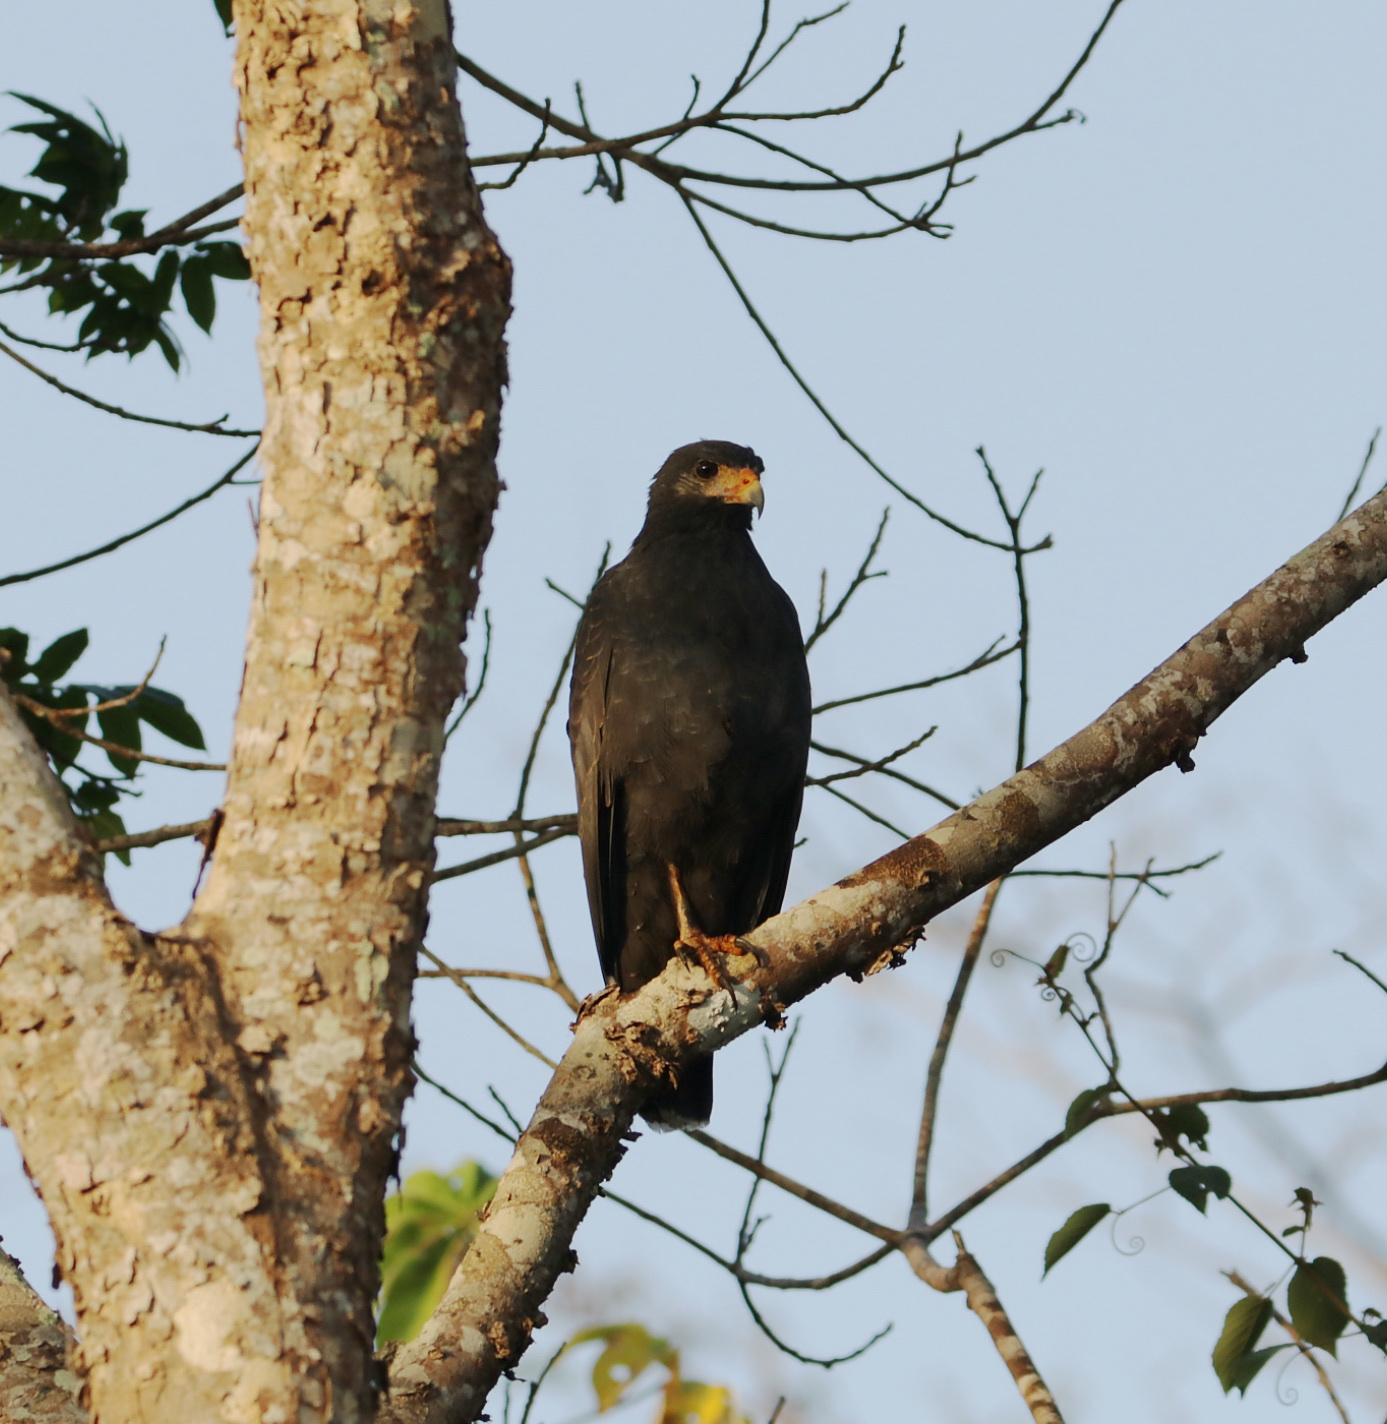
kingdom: Animalia
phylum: Chordata
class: Aves
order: Accipitriformes
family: Accipitridae
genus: Buteogallus
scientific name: Buteogallus anthracinus
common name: Common black hawk
